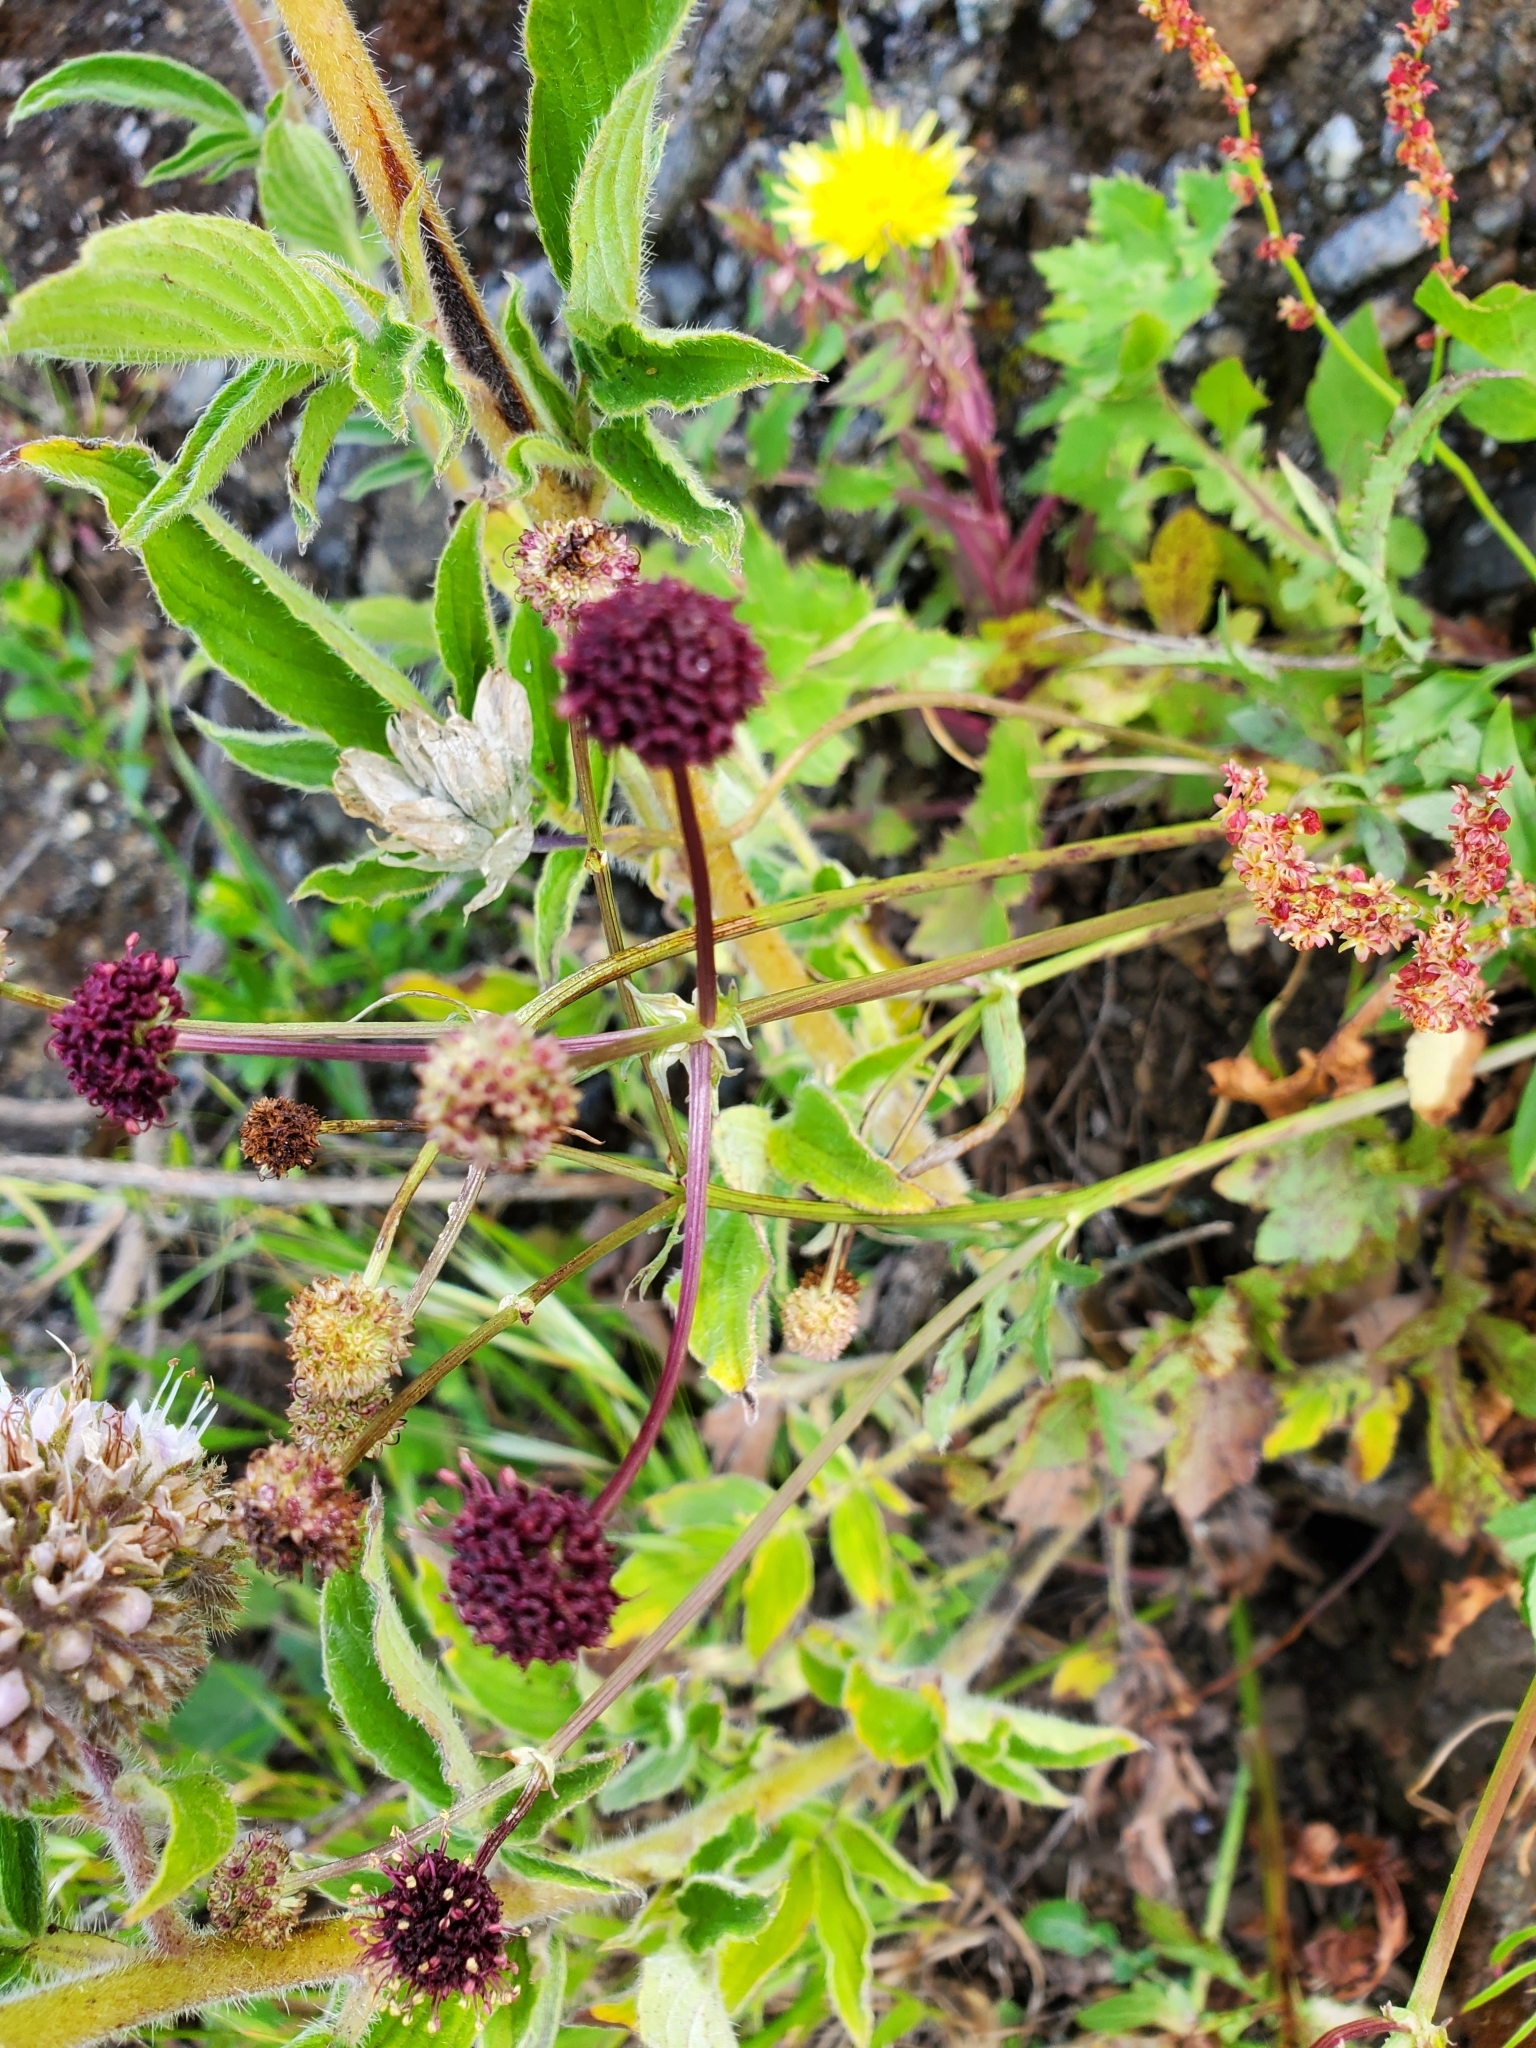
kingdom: Plantae
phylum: Tracheophyta
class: Magnoliopsida
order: Apiales
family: Apiaceae
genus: Sanicula
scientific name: Sanicula bipinnatifida
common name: Shoe-buttons
